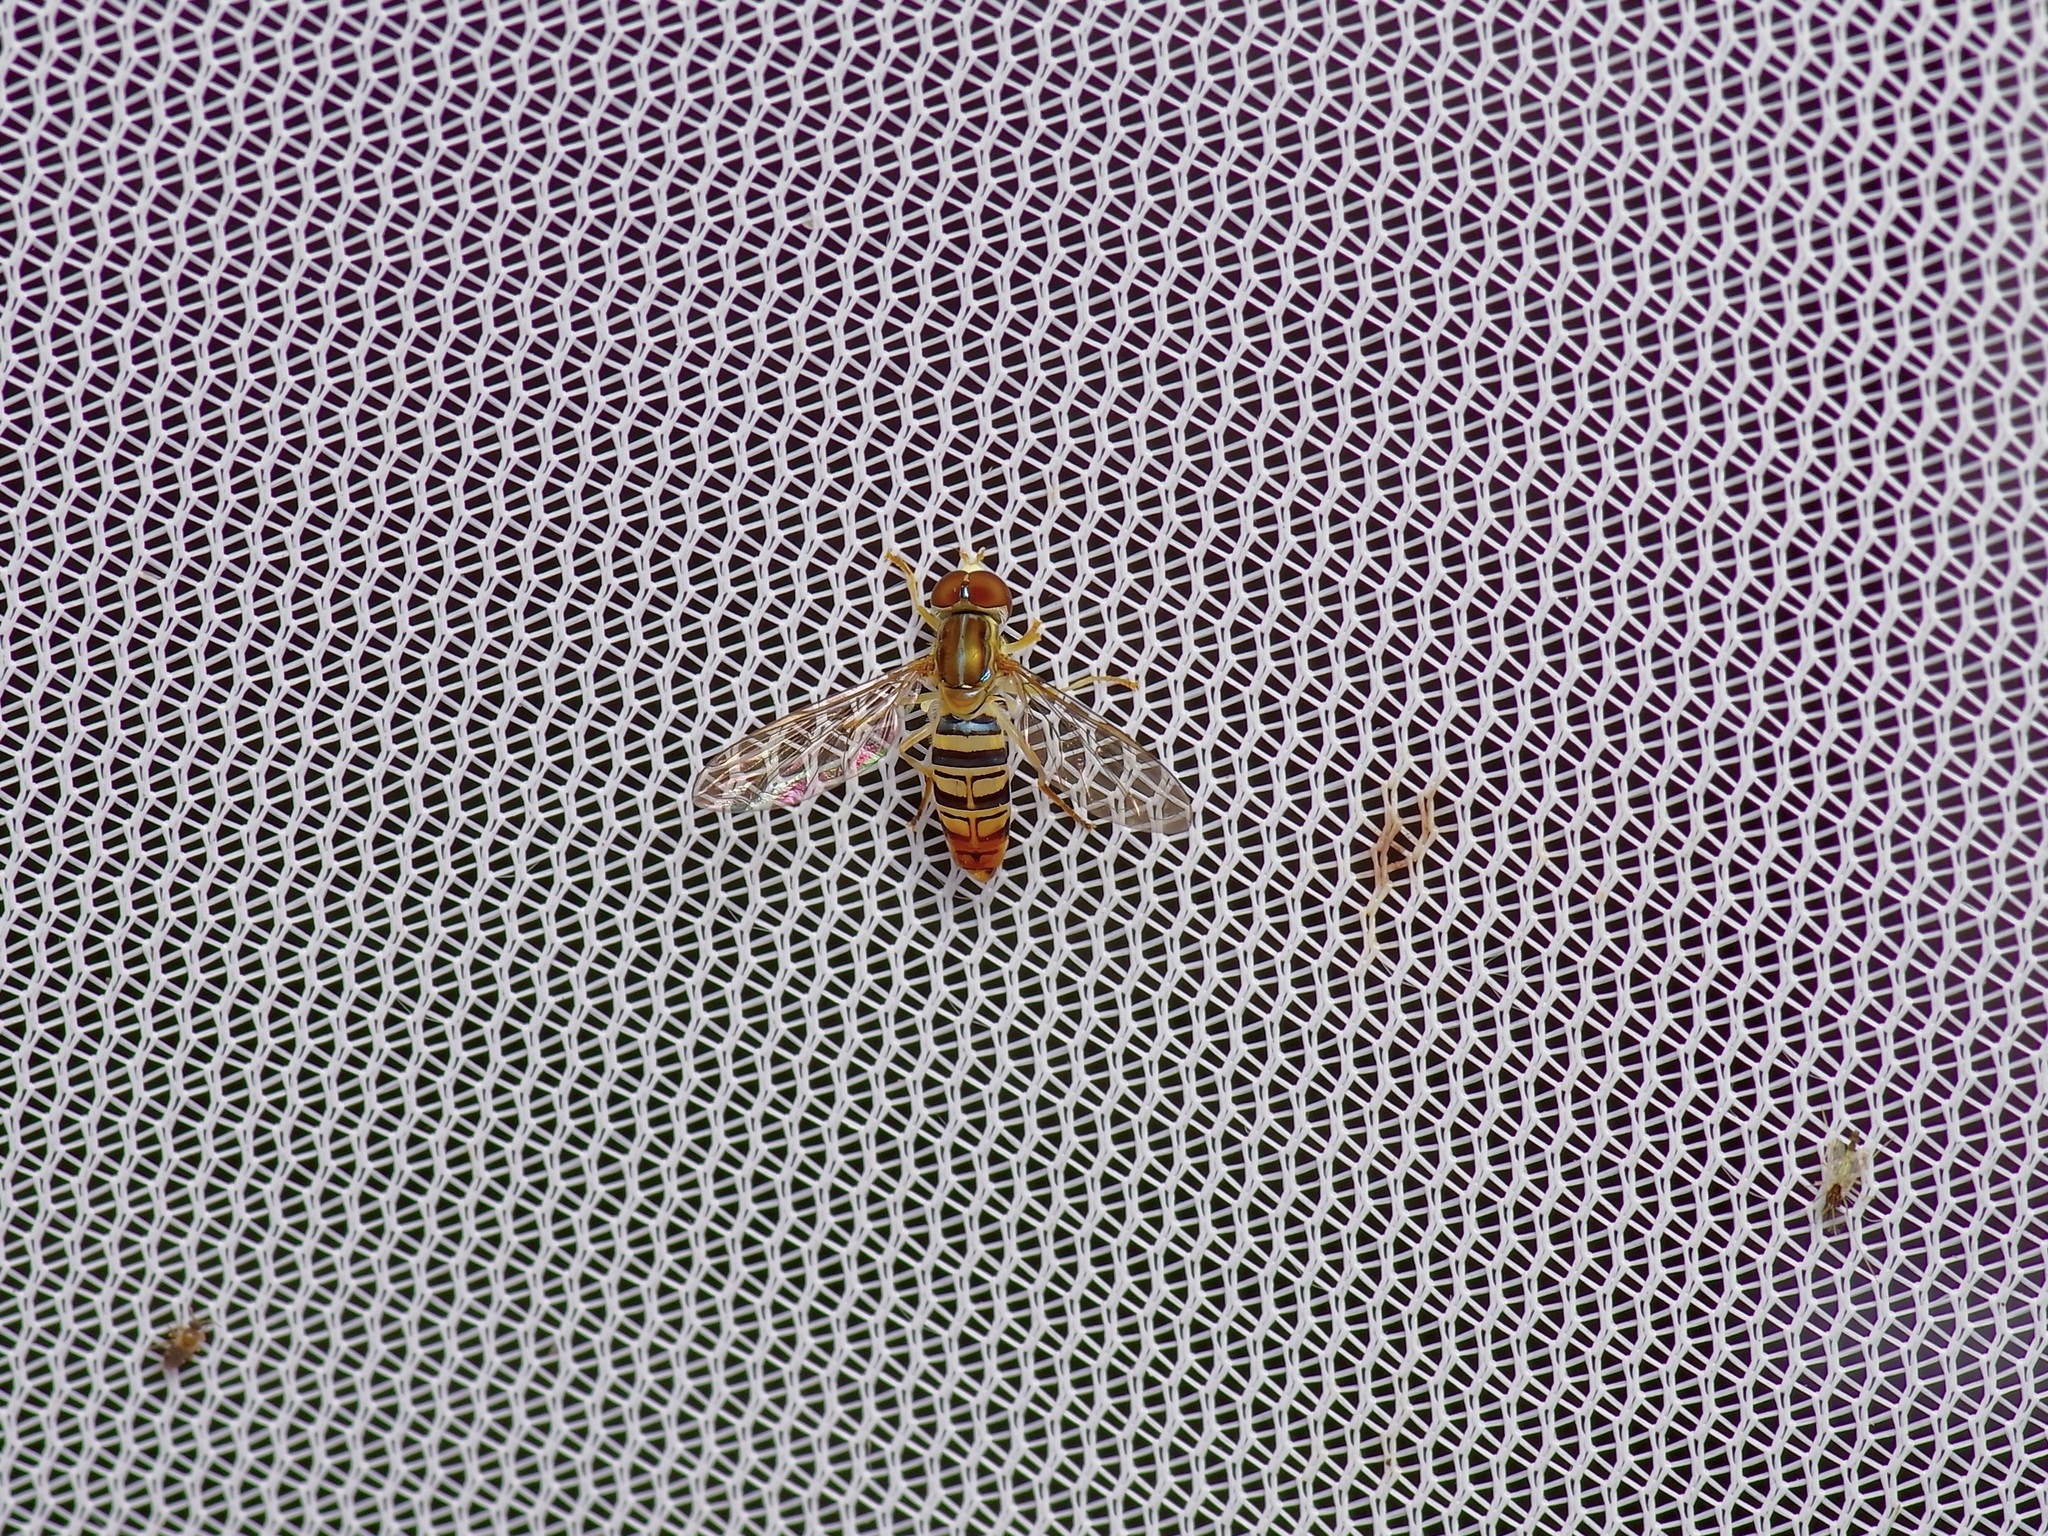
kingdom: Animalia
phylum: Arthropoda
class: Insecta
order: Diptera
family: Syrphidae
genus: Toxomerus
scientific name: Toxomerus politus
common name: Maize calligrapher
